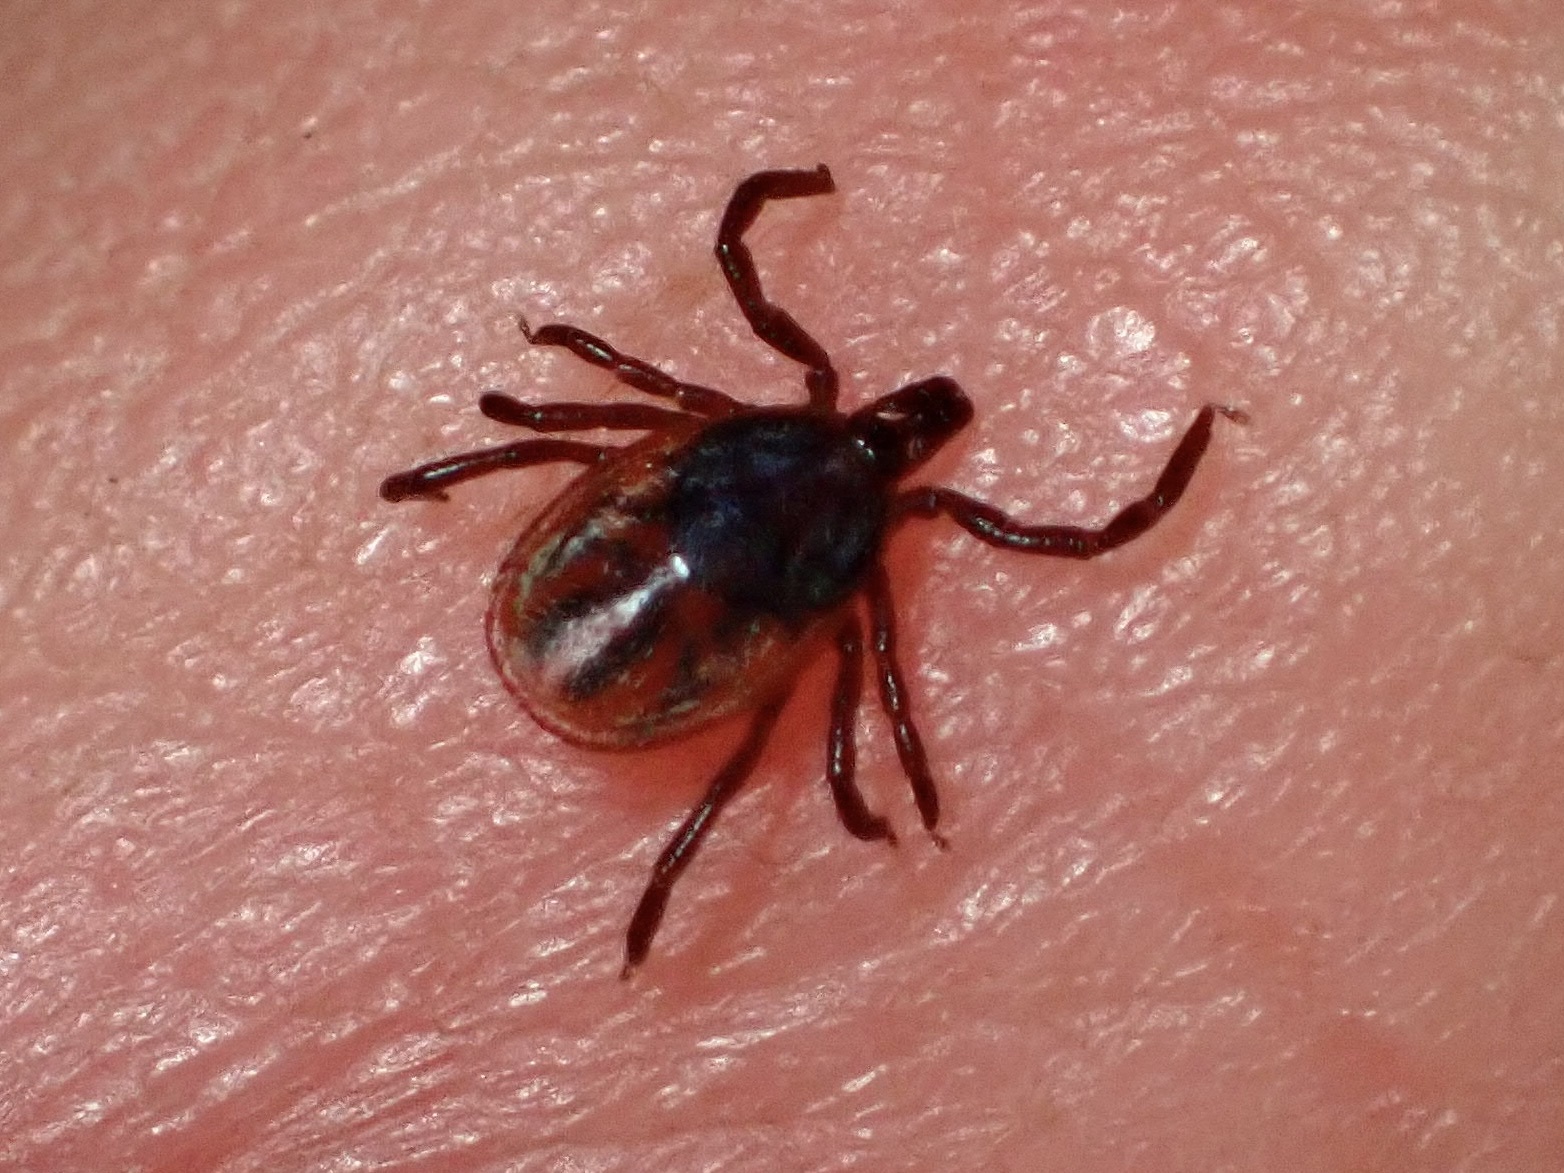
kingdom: Animalia
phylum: Arthropoda
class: Arachnida
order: Ixodida
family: Ixodidae
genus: Ixodes
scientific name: Ixodes pacificus
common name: California black-legged tick
